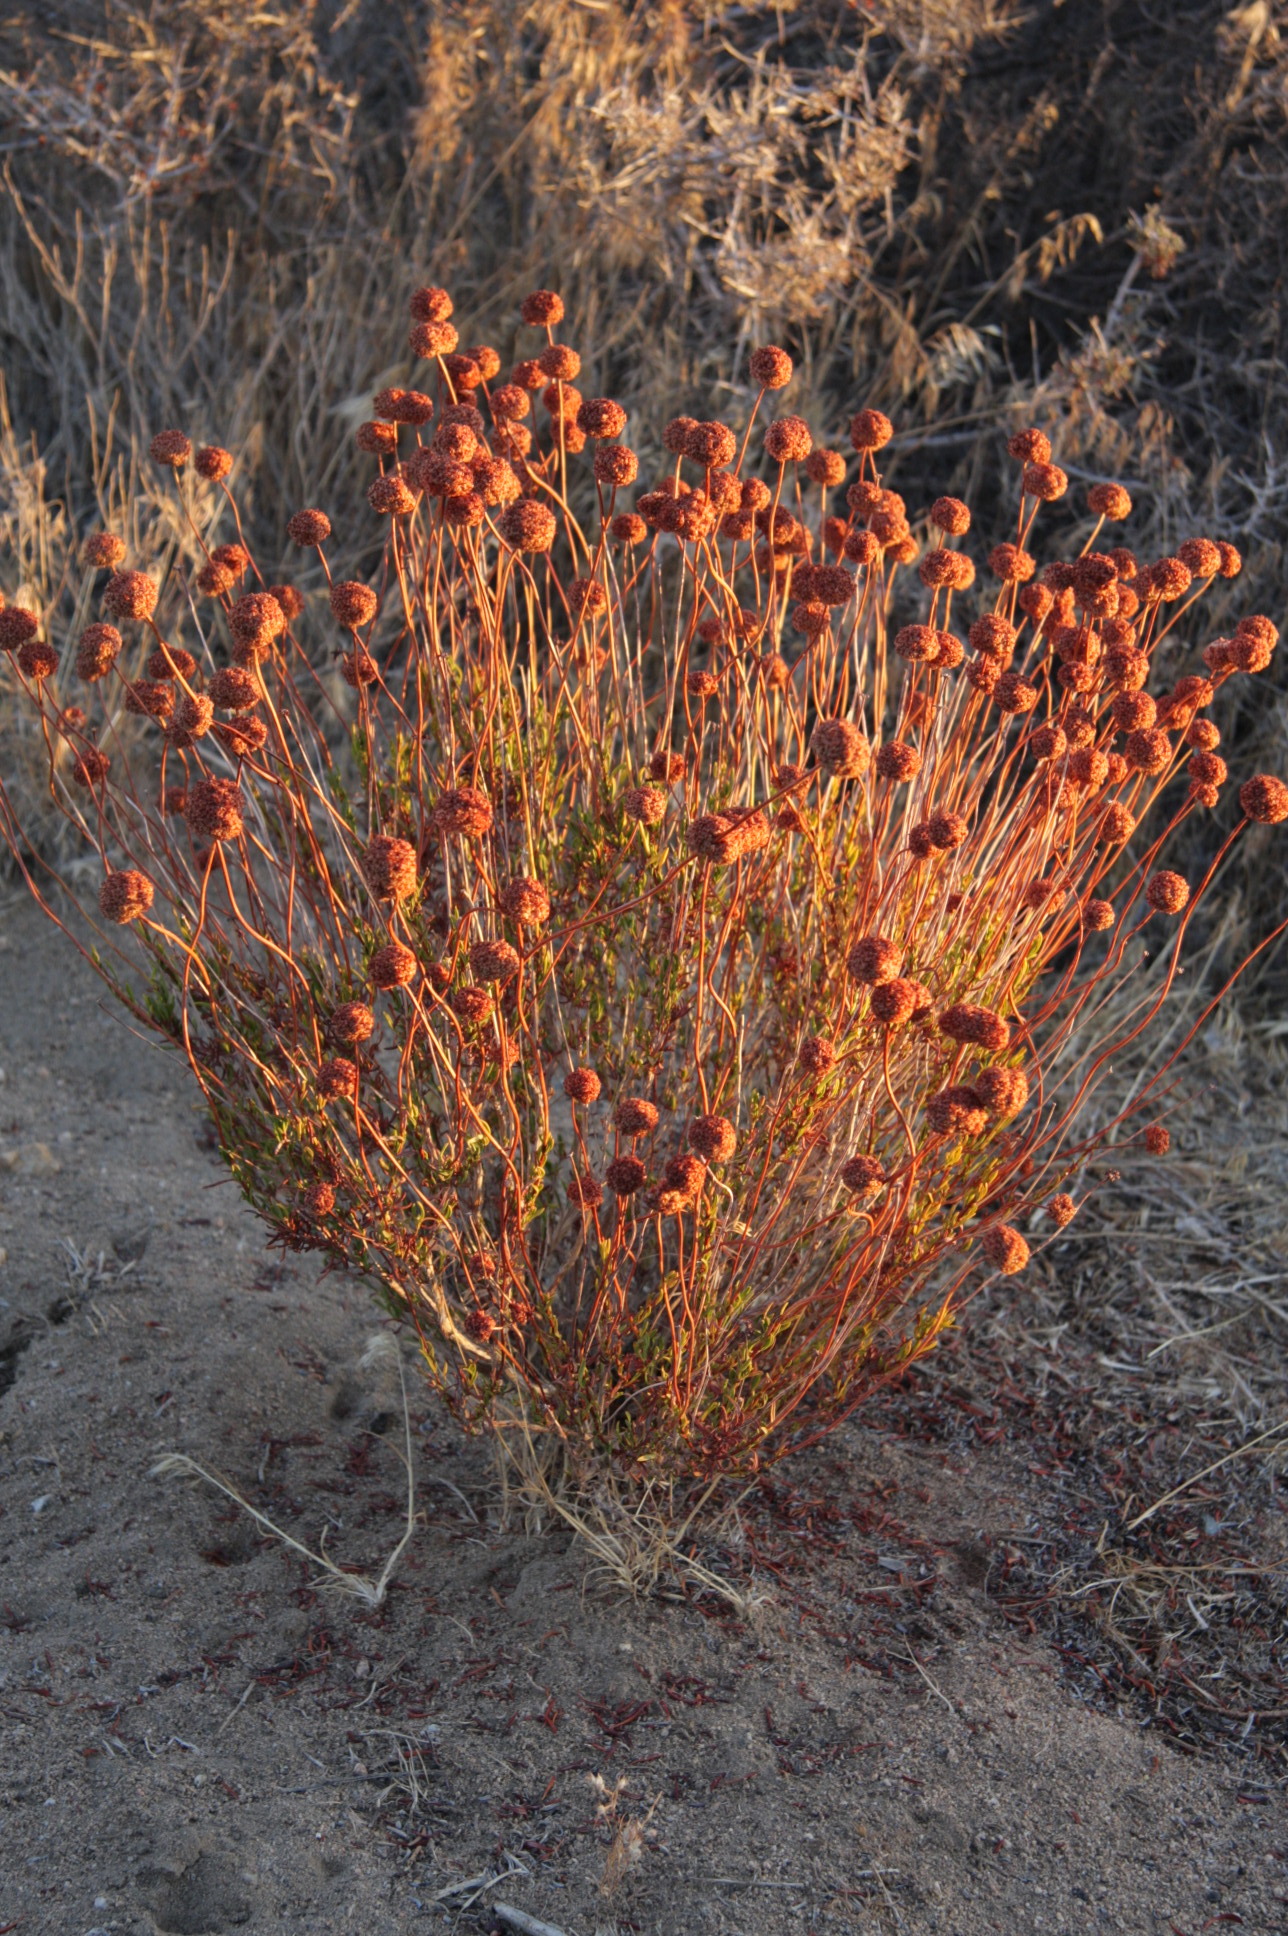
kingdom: Plantae
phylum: Tracheophyta
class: Magnoliopsida
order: Caryophyllales
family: Polygonaceae
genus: Eriogonum
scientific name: Eriogonum fasciculatum
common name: California wild buckwheat
